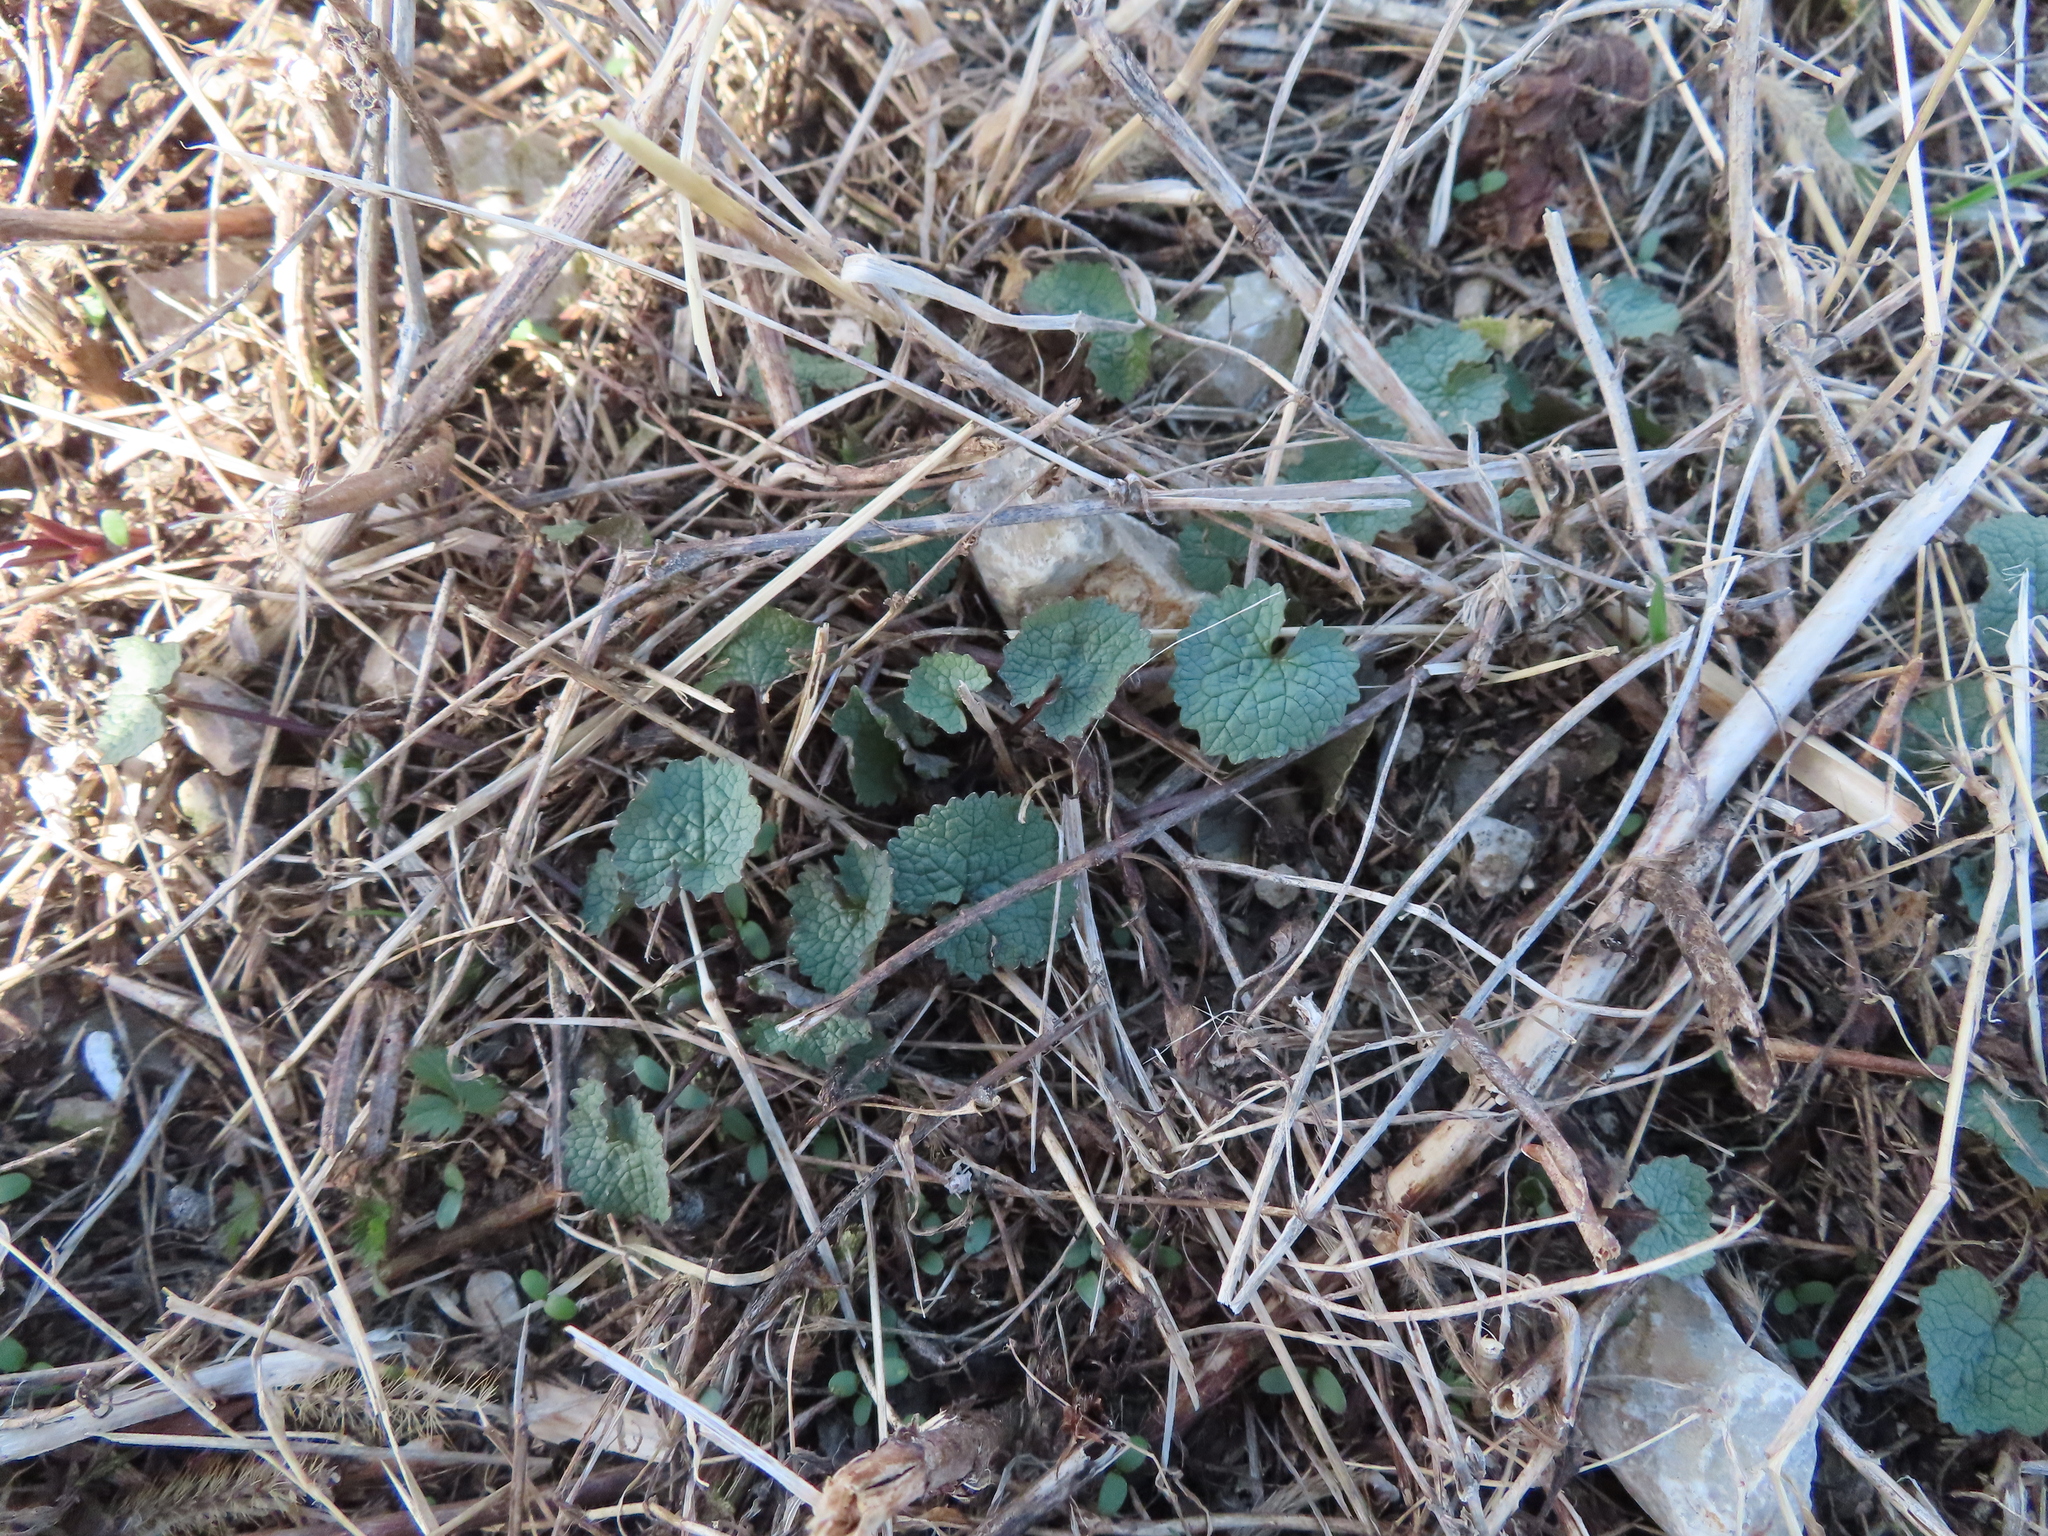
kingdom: Plantae
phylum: Tracheophyta
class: Magnoliopsida
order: Brassicales
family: Brassicaceae
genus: Alliaria
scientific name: Alliaria petiolata
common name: Garlic mustard
